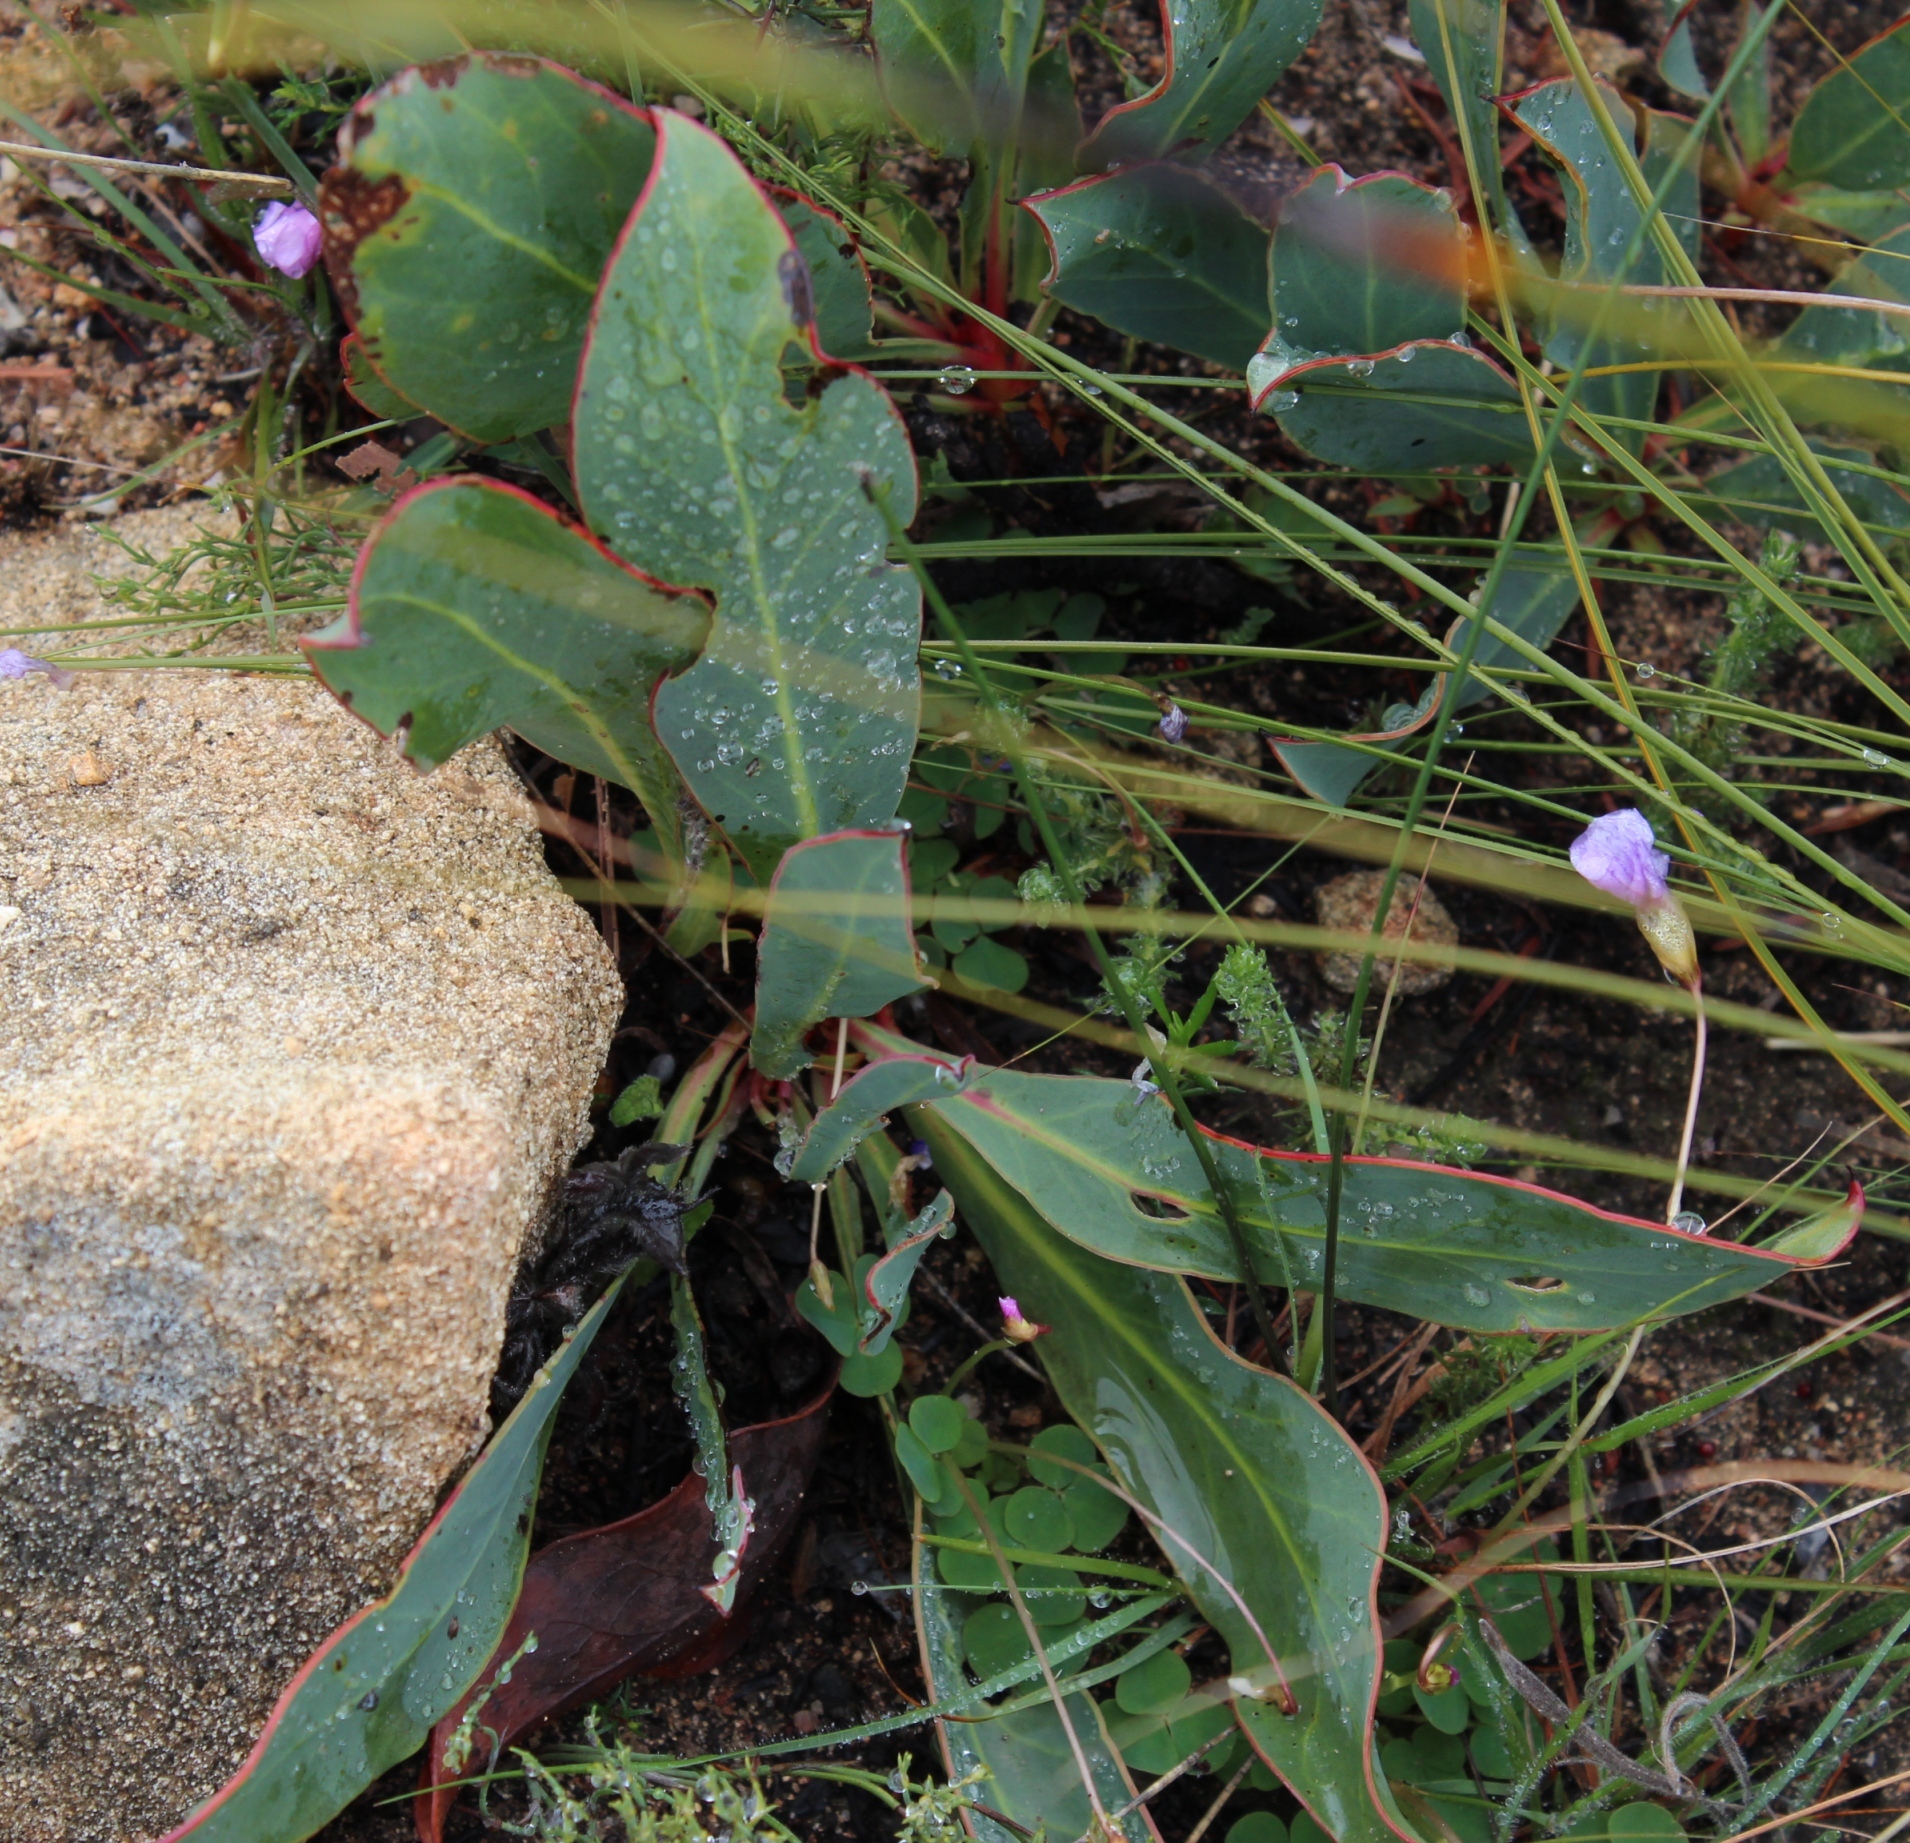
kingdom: Plantae
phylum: Tracheophyta
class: Magnoliopsida
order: Proteales
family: Proteaceae
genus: Protea
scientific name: Protea acaulos
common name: Common ground sugarbush
